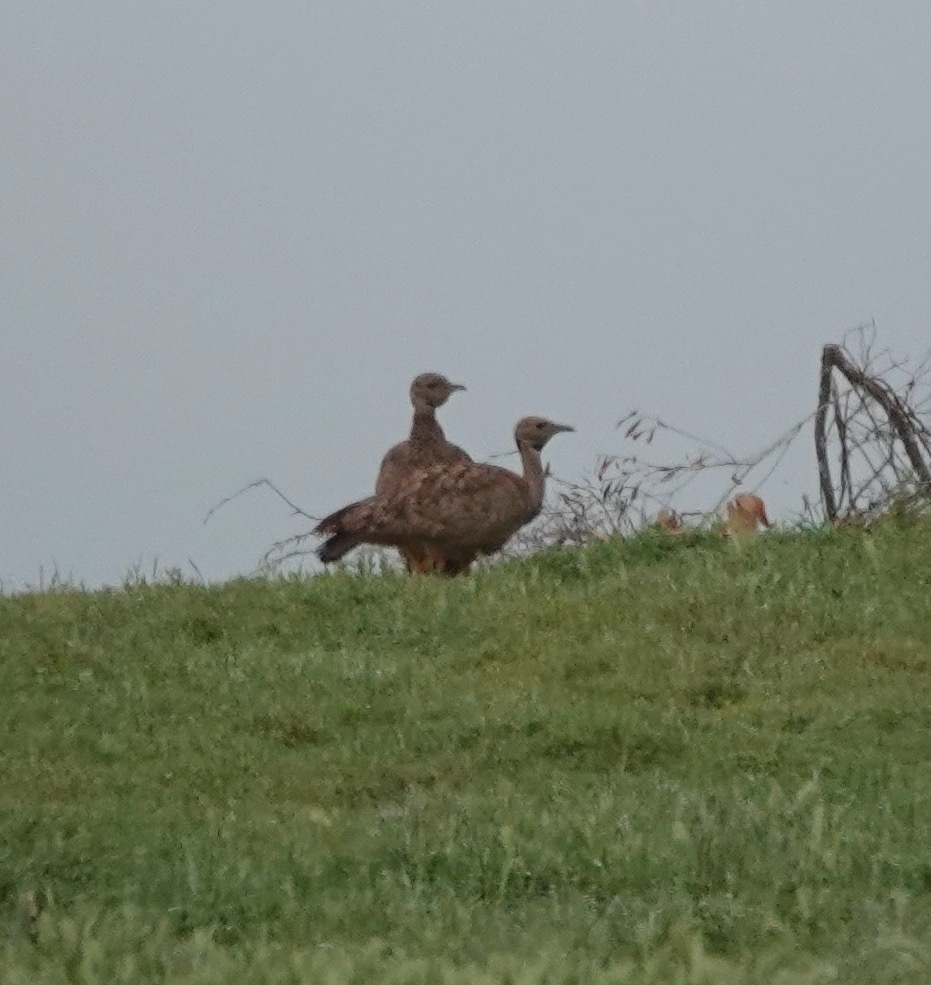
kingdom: Animalia
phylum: Chordata
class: Aves
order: Otidiformes
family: Otididae
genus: Eupodotis
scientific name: Eupodotis vigorsii
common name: Karoo korhaan
